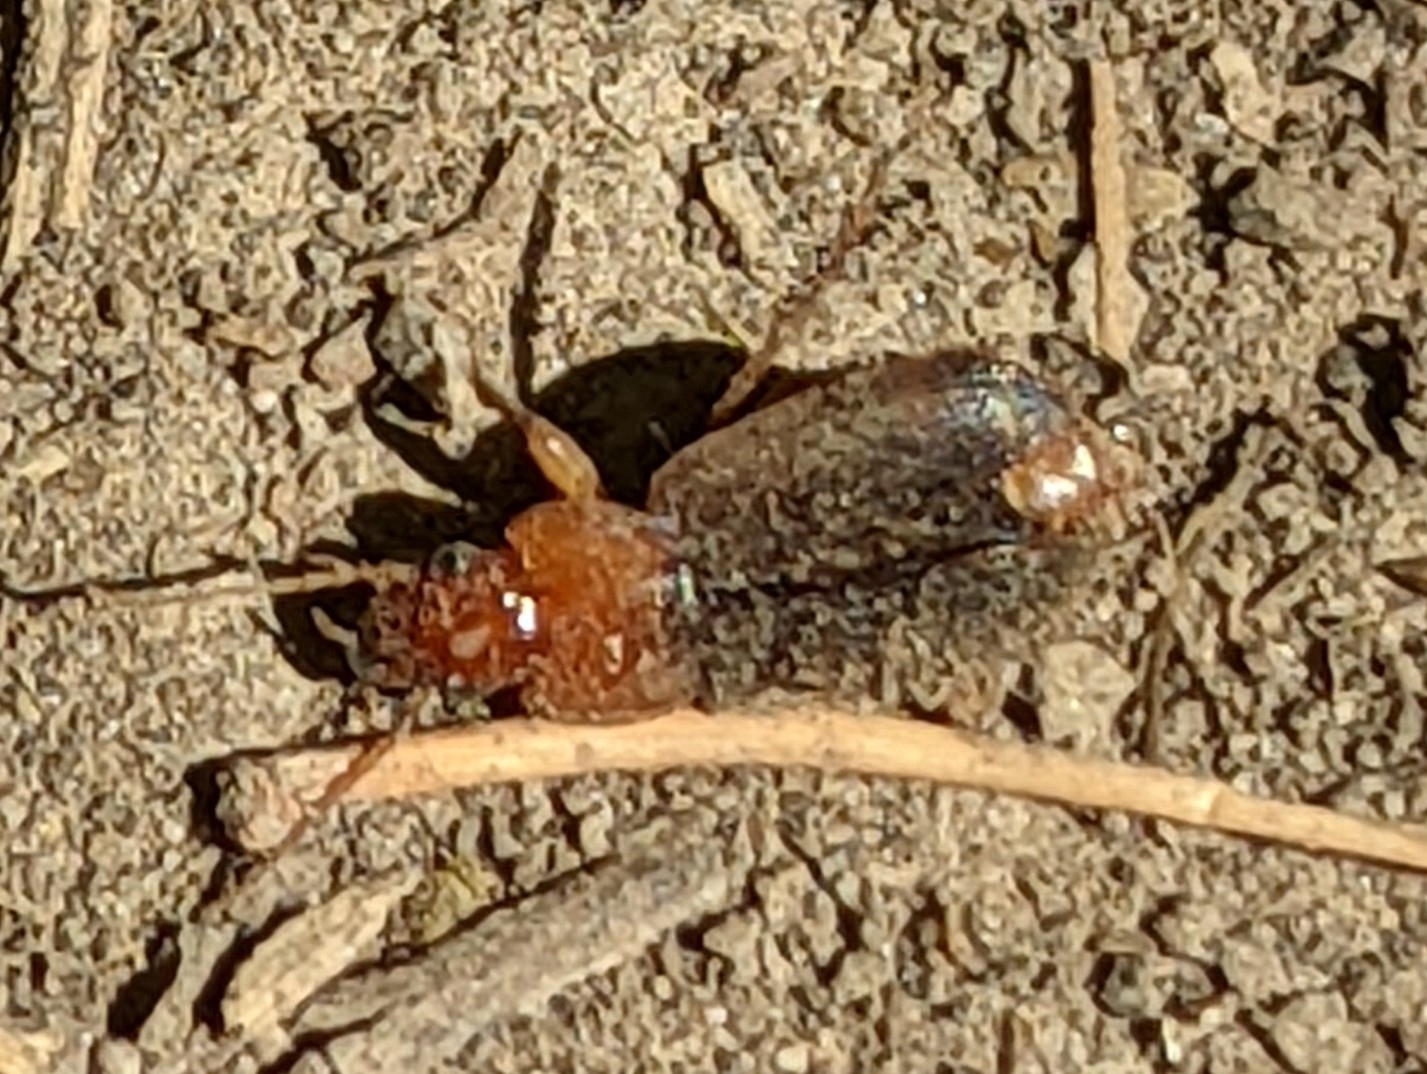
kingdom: Animalia
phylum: Arthropoda
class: Insecta
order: Coleoptera
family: Carabidae
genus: Amphasia
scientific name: Amphasia interstitialis
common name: Red-headed ground beetle
